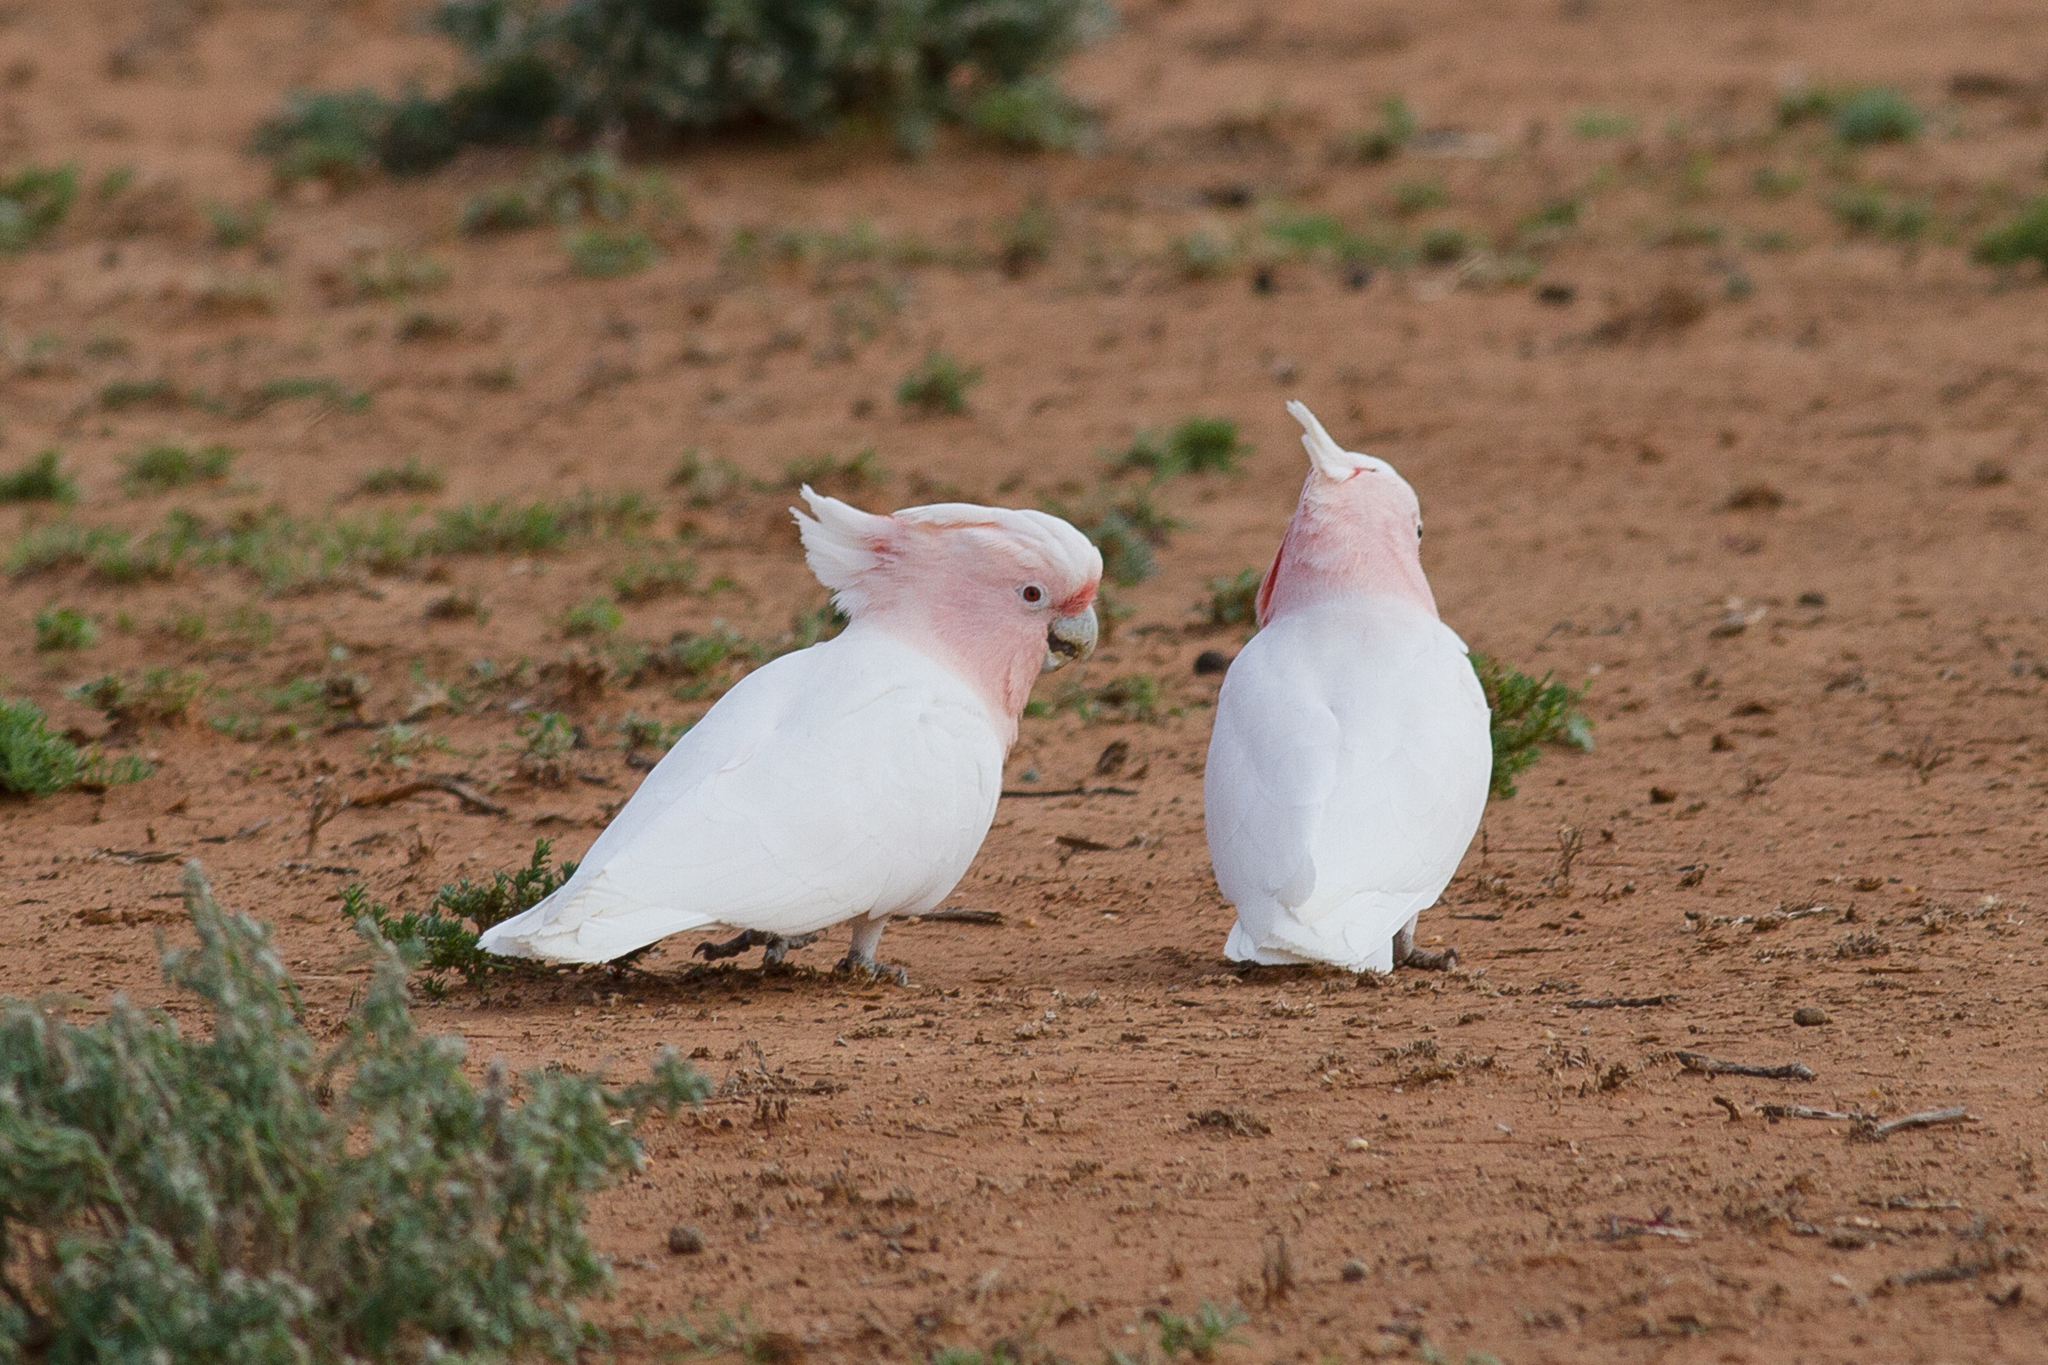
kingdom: Animalia
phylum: Chordata
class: Aves
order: Psittaciformes
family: Psittacidae
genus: Cacatua
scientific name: Cacatua leadbeateri
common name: Major mitchell's cockatoo
